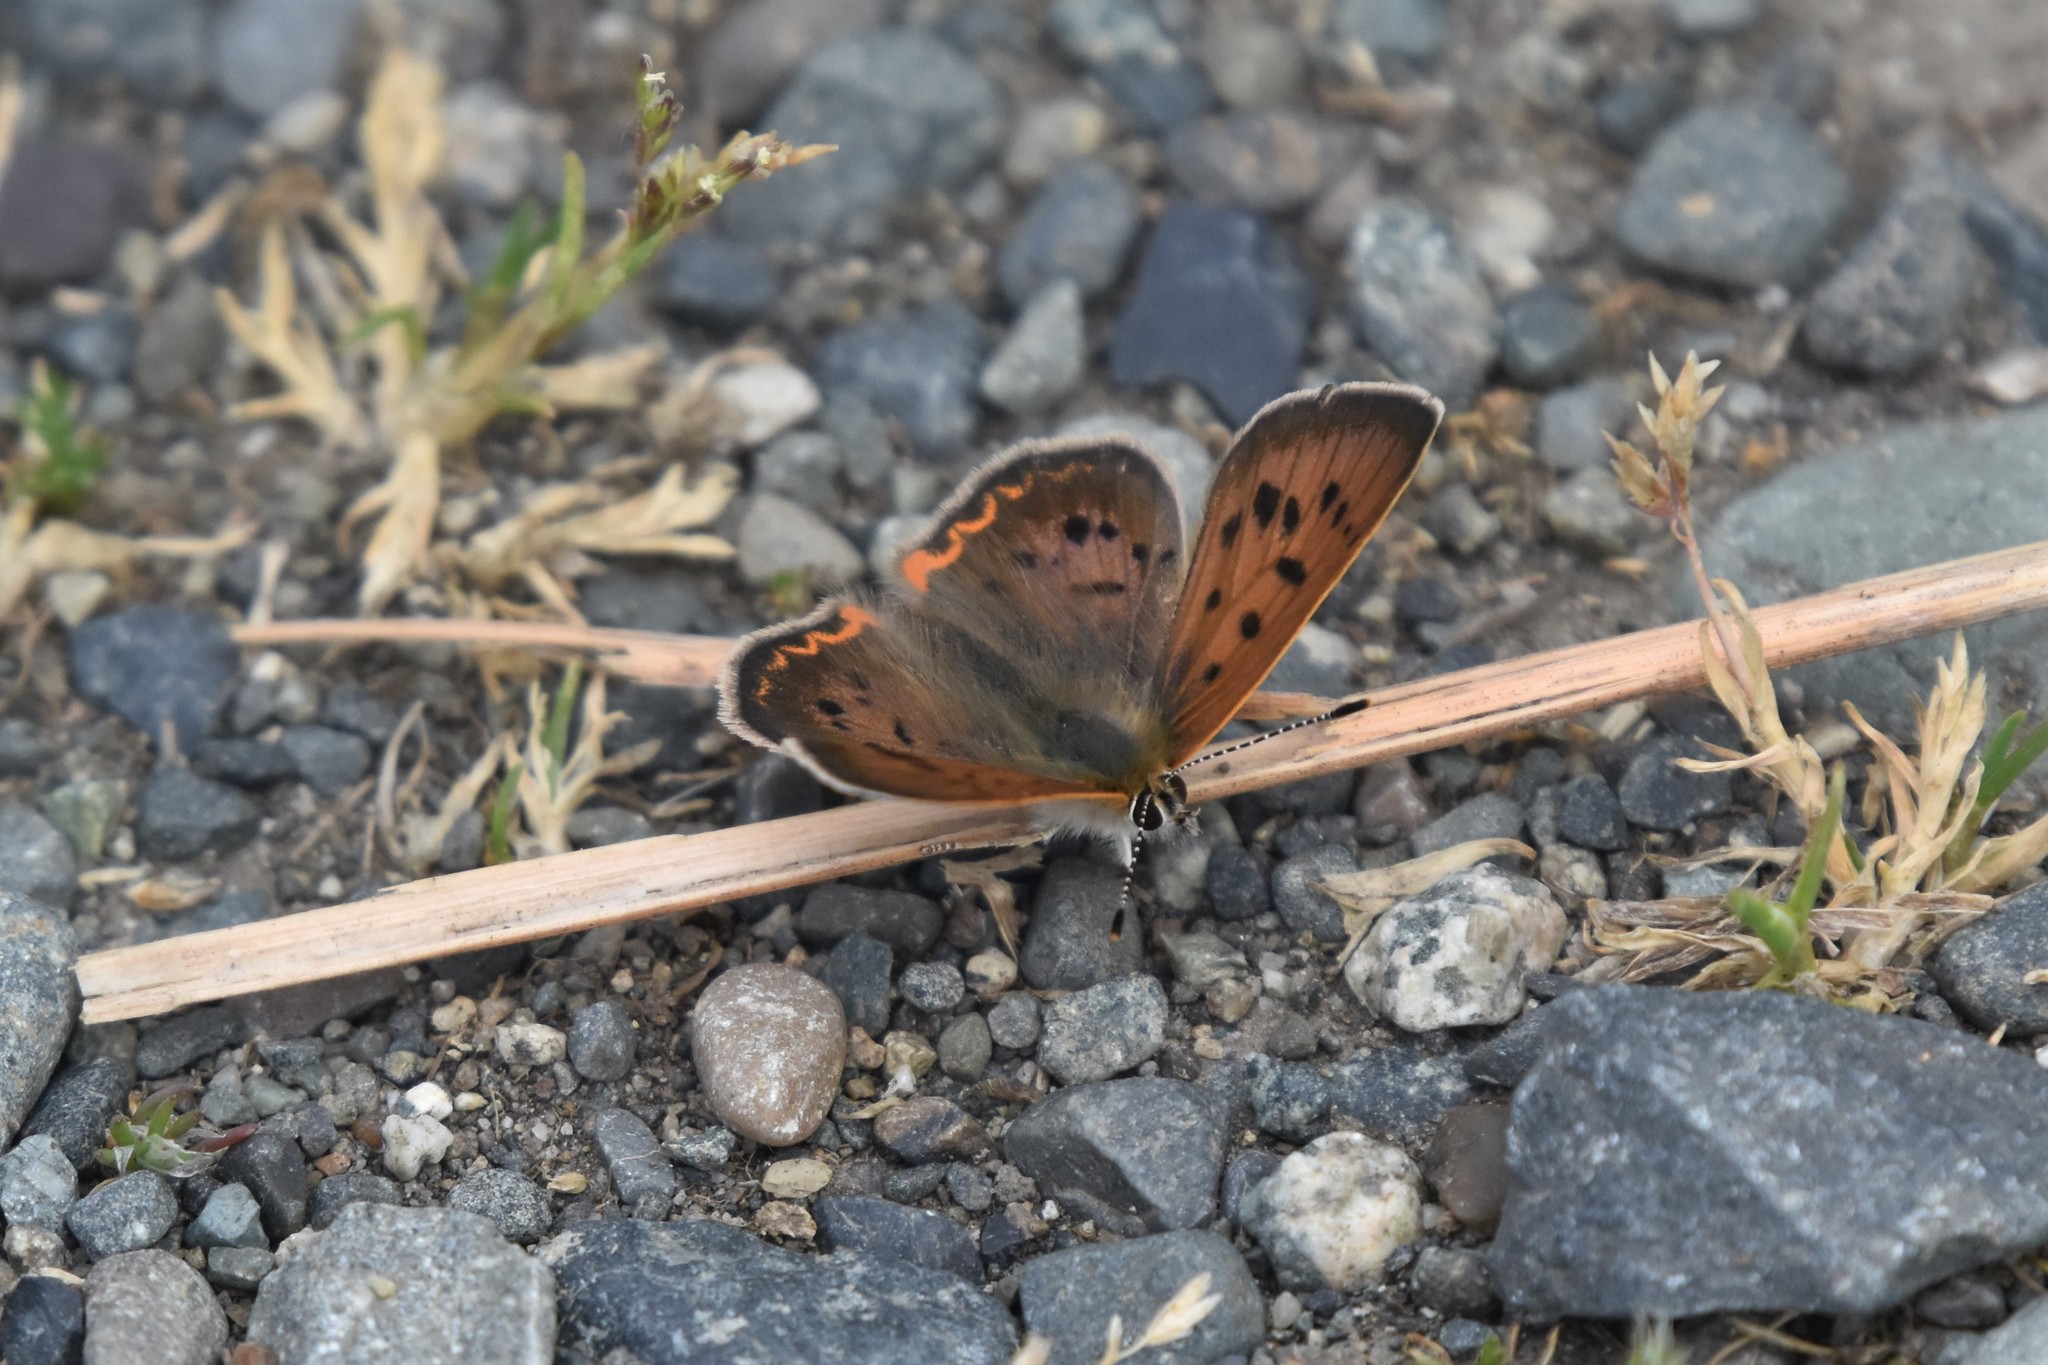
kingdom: Animalia
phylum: Arthropoda
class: Insecta
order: Lepidoptera
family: Lycaenidae
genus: Tharsalea
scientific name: Tharsalea helloides
